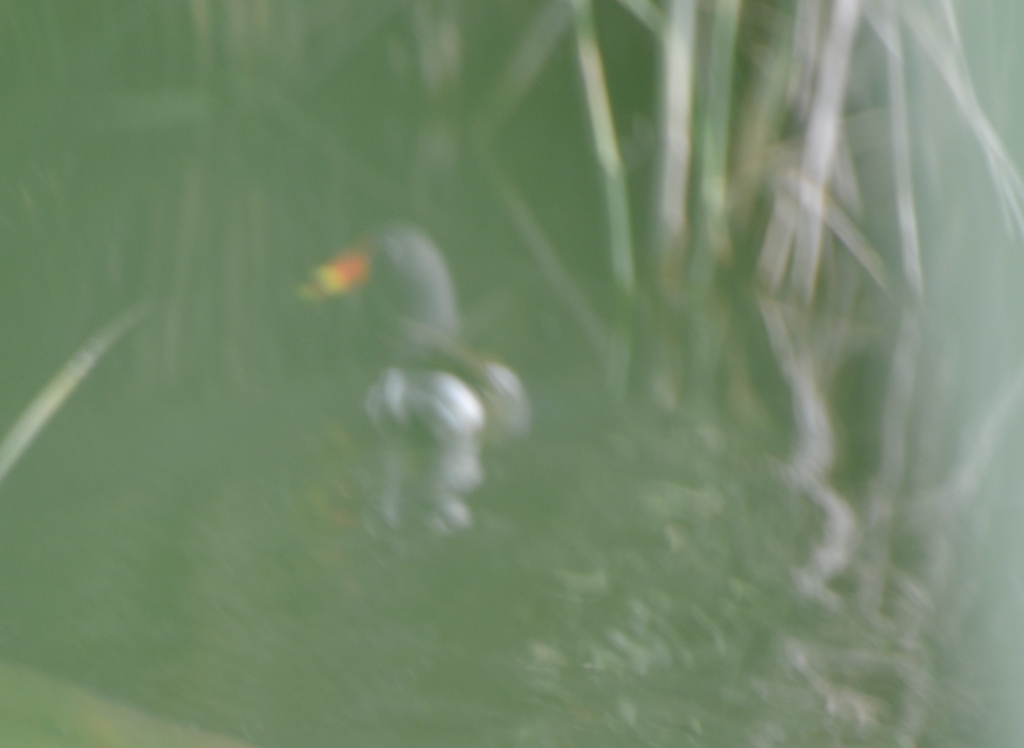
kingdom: Animalia
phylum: Chordata
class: Aves
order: Gruiformes
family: Rallidae
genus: Gallinula
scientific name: Gallinula chloropus
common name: Common moorhen
